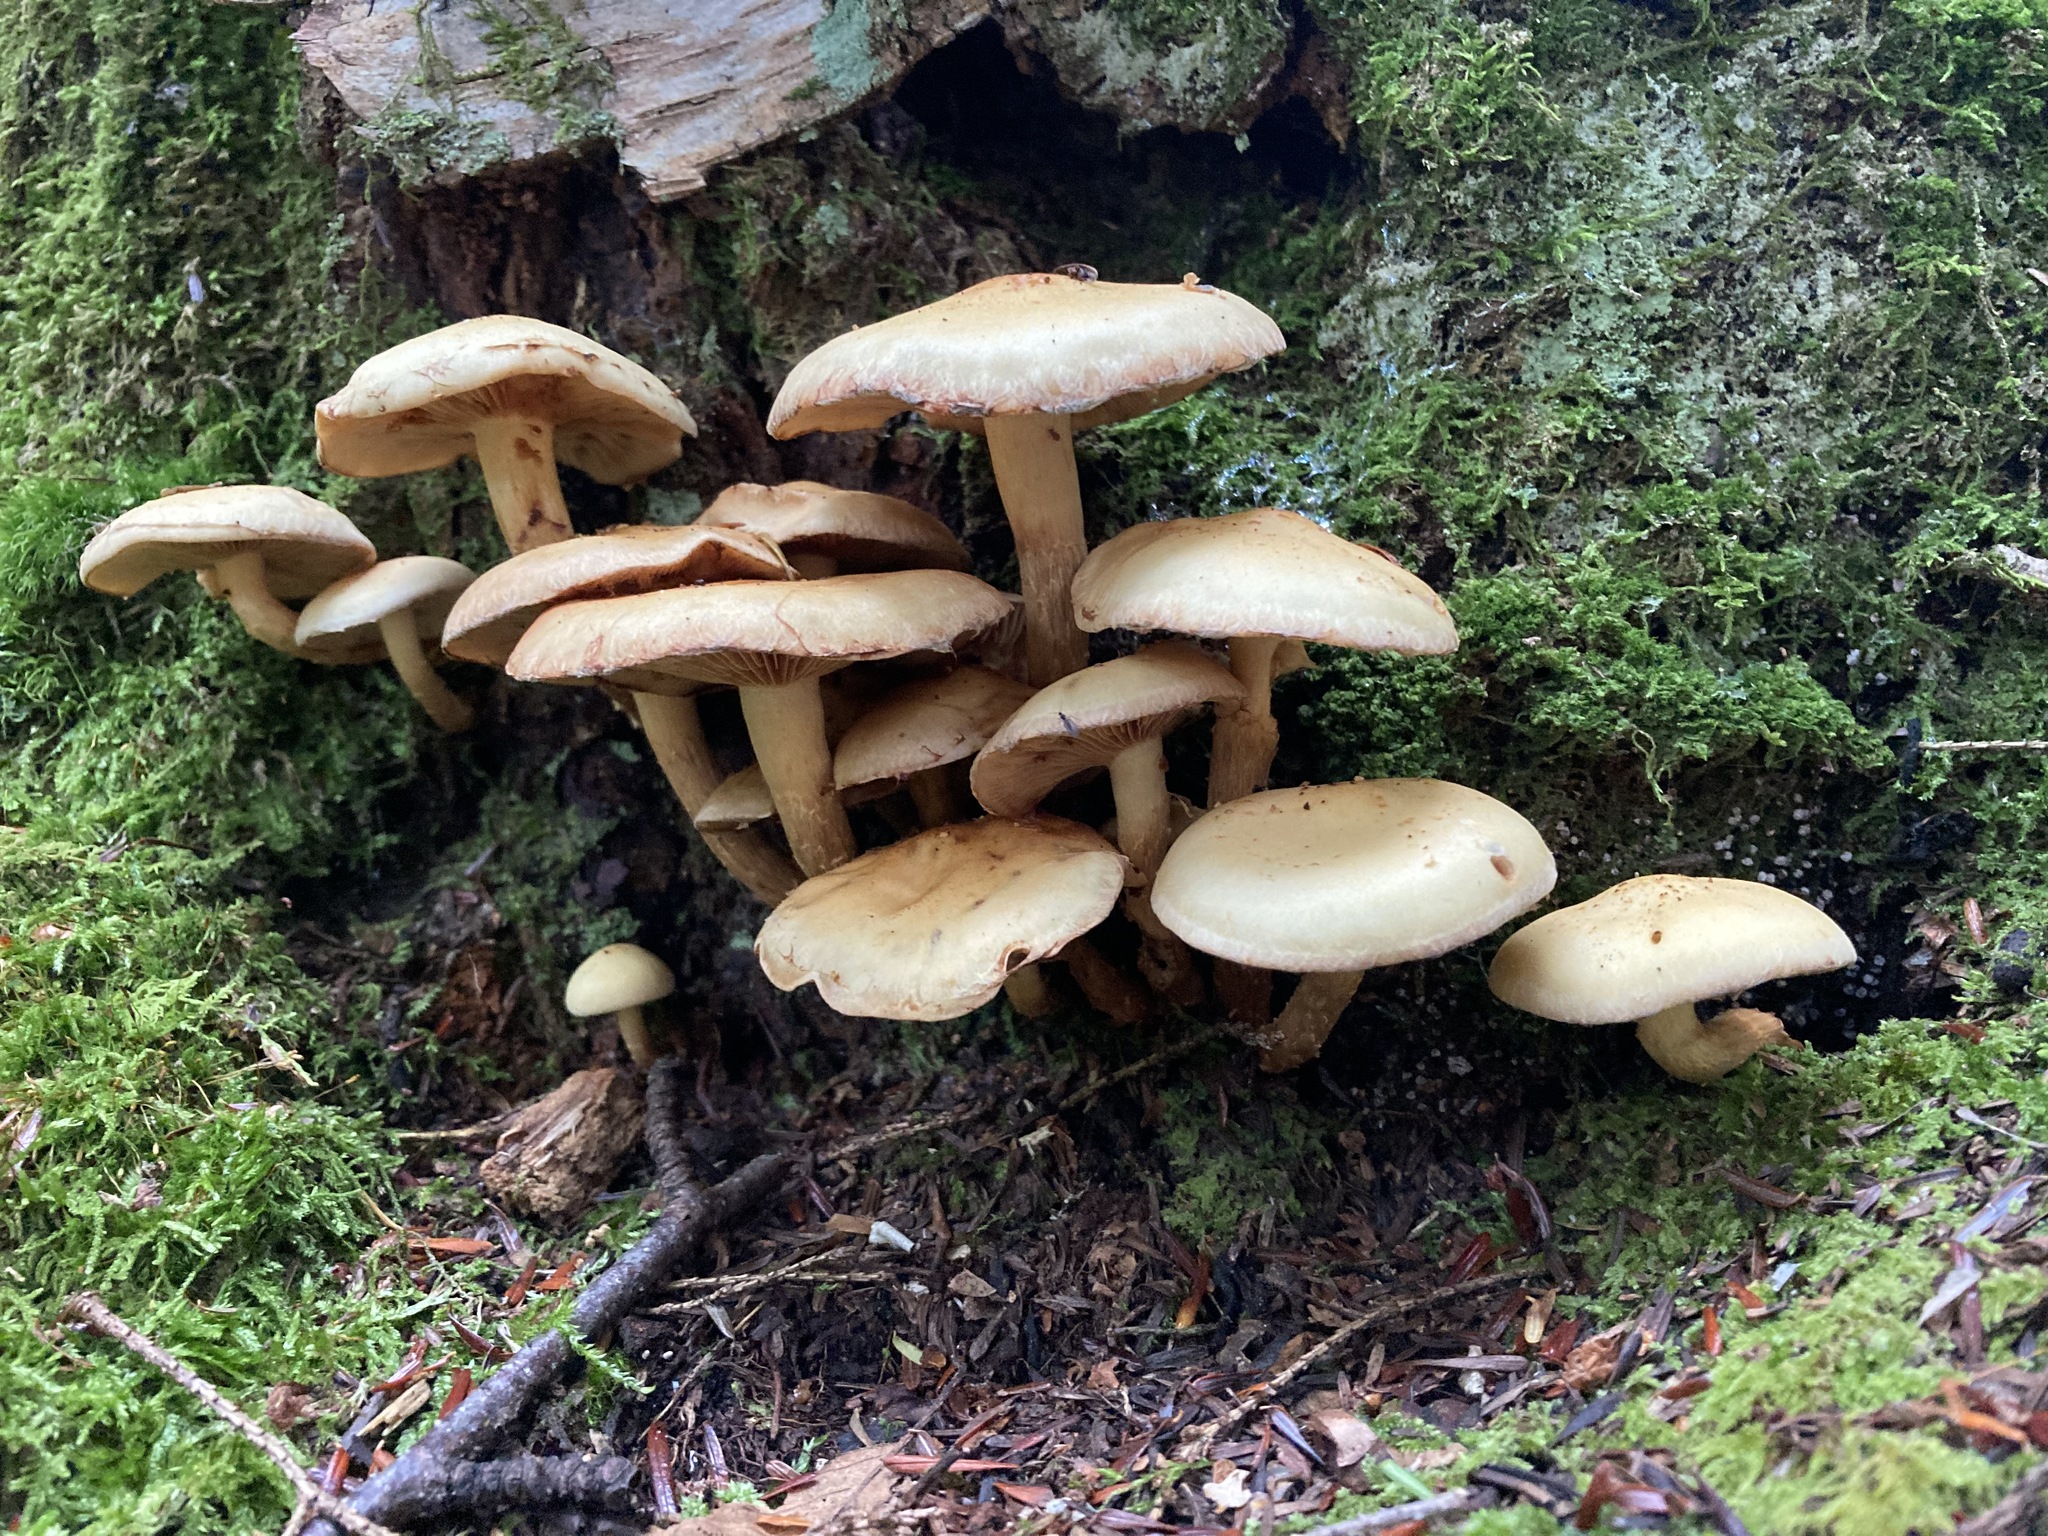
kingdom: Fungi
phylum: Basidiomycota
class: Agaricomycetes
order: Agaricales
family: Hymenogastraceae
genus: Flammula
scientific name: Flammula alnicola
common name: Alder scalycap
